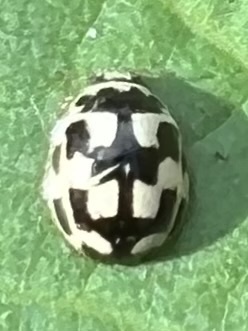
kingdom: Animalia
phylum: Arthropoda
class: Insecta
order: Coleoptera
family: Coccinellidae
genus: Propylaea
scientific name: Propylaea quatuordecimpunctata
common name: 14-spotted ladybird beetle
